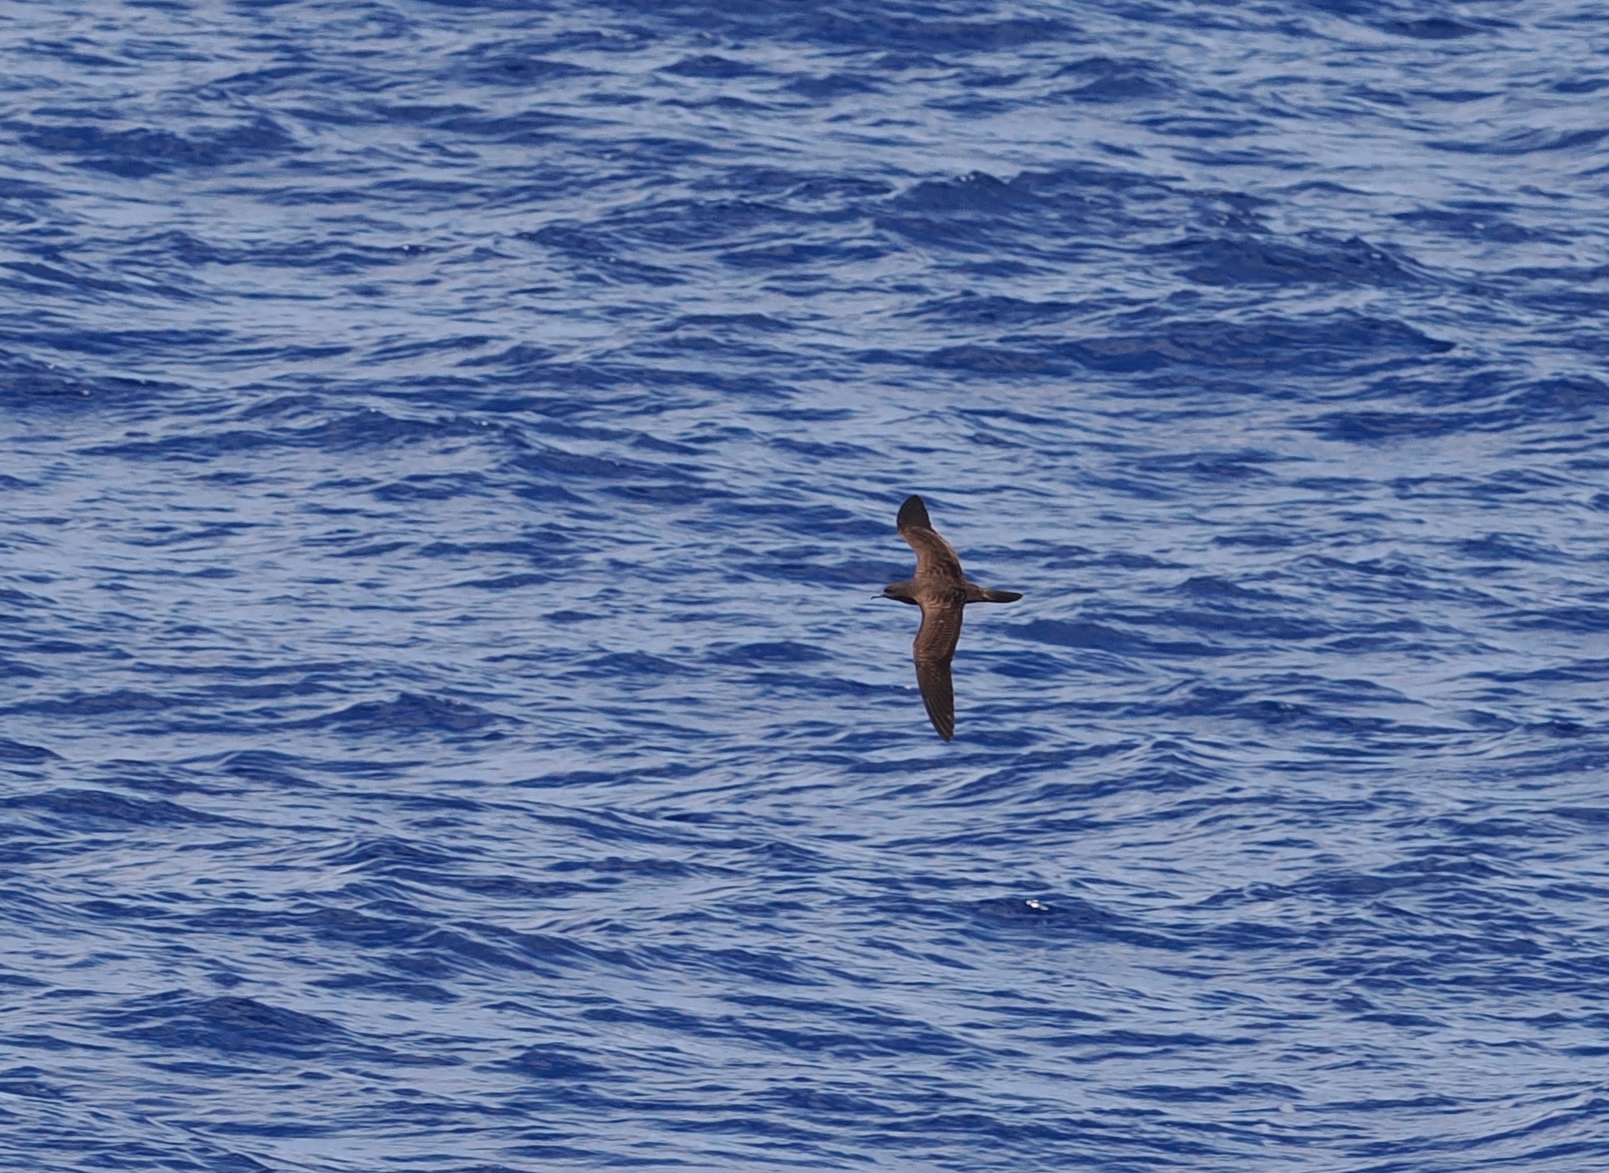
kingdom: Animalia
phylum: Chordata
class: Aves
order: Procellariiformes
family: Procellariidae
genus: Puffinus
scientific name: Puffinus pacificus
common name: Wedge-tailed shearwater
